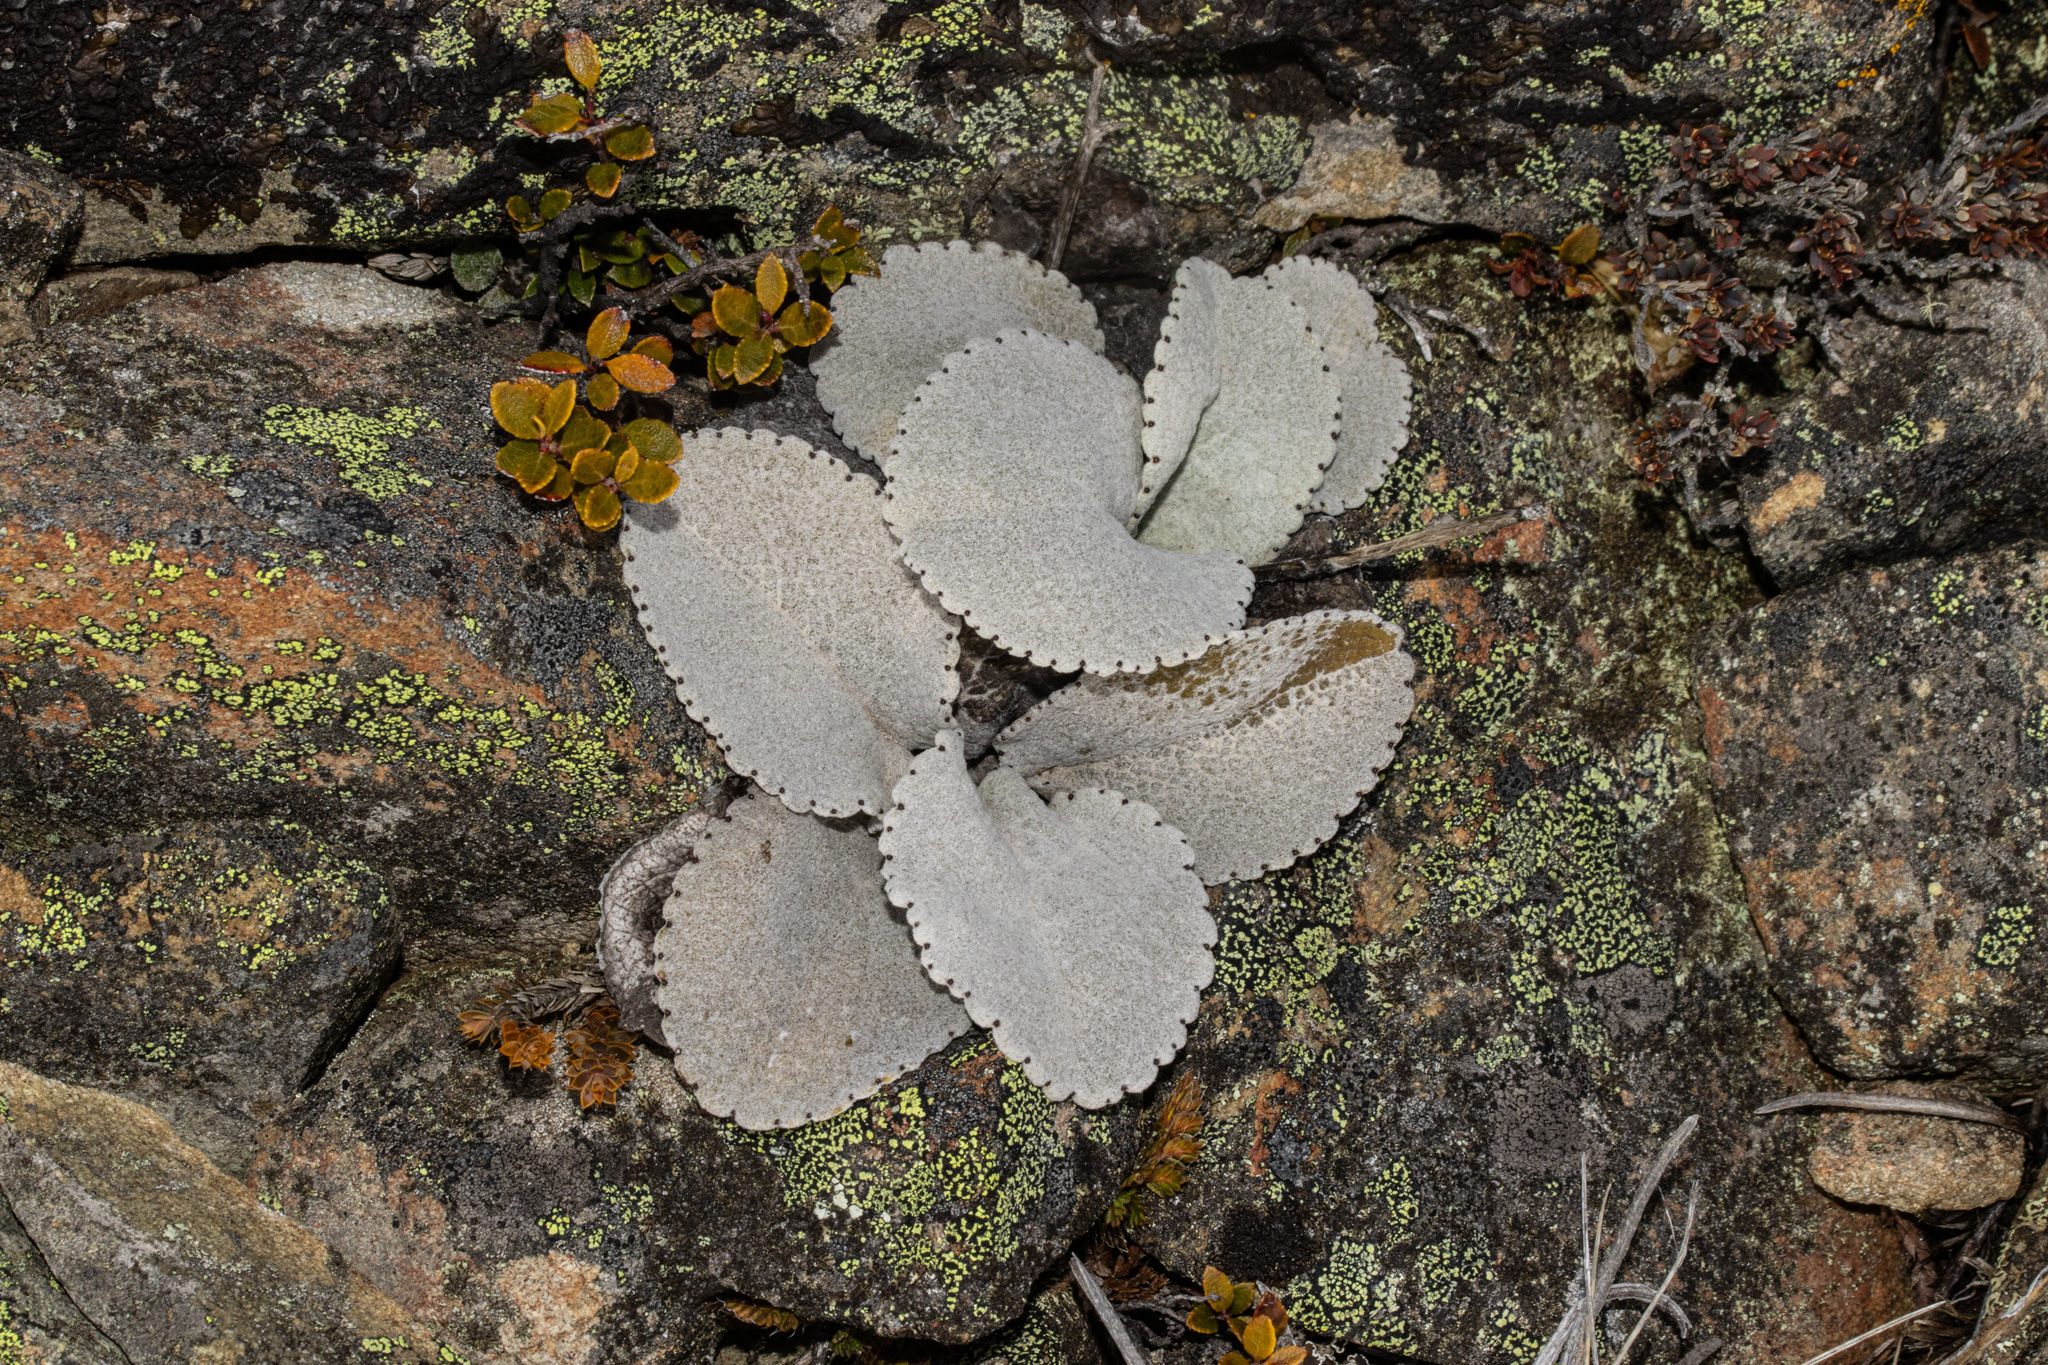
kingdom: Plantae
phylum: Tracheophyta
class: Magnoliopsida
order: Asterales
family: Asteraceae
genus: Brachyglottis
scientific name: Brachyglottis haastii
